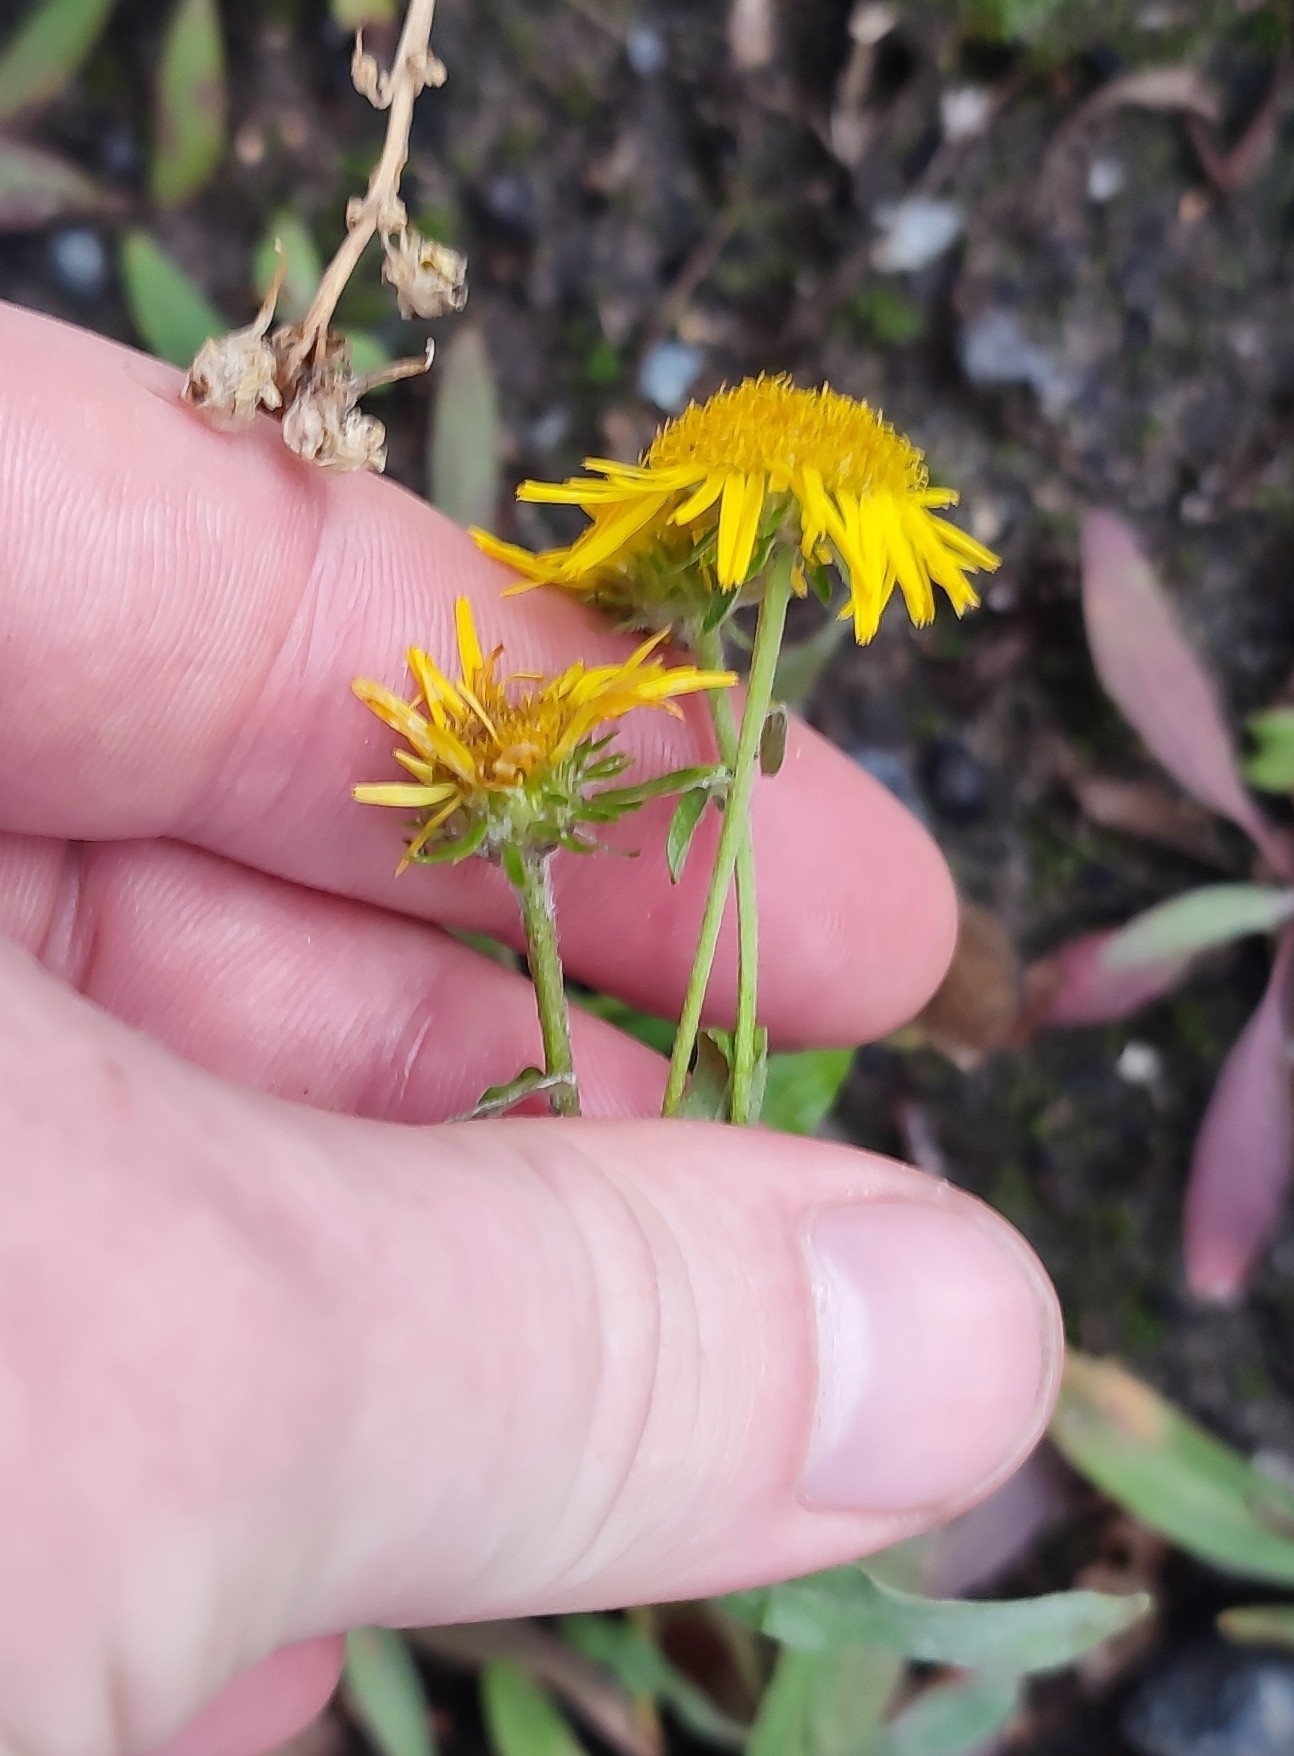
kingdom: Plantae
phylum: Tracheophyta
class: Magnoliopsida
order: Asterales
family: Asteraceae
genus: Pentanema
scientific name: Pentanema britannicum
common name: British elecampane
